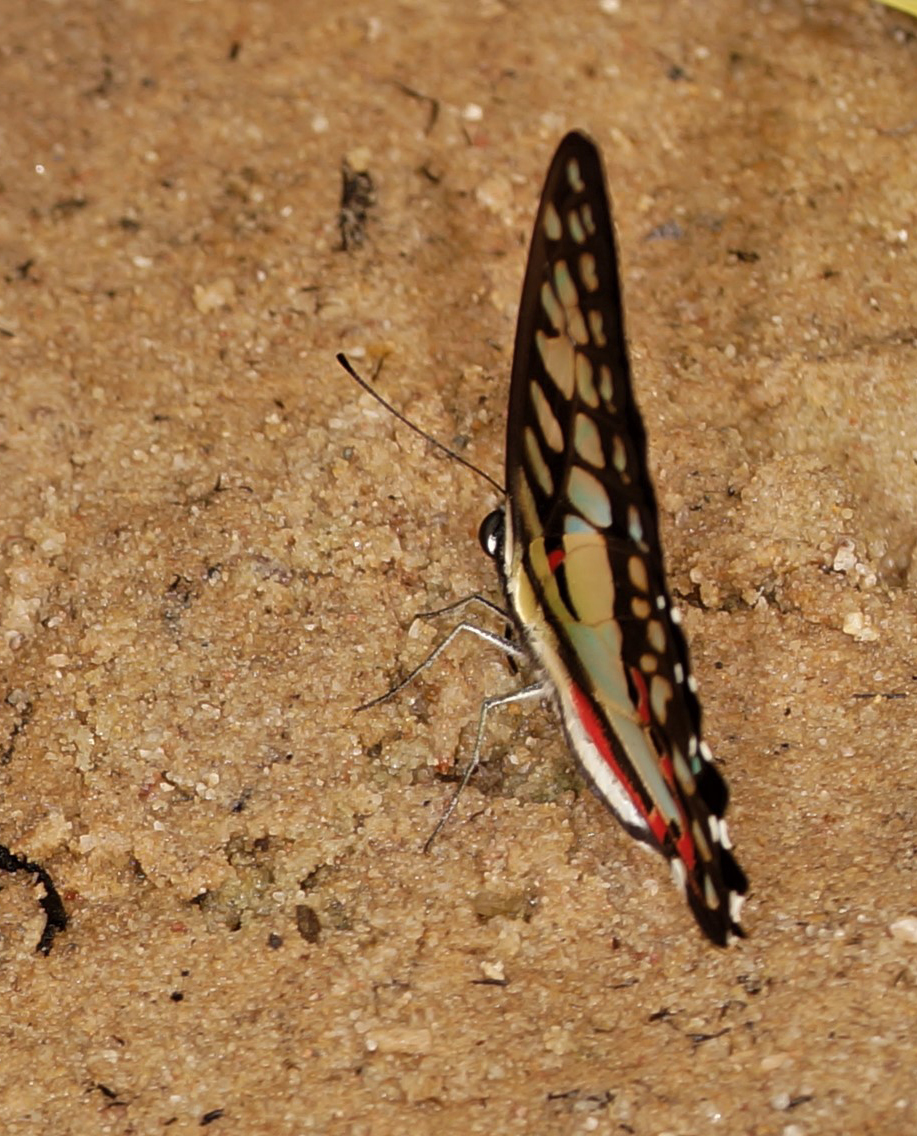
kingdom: Animalia
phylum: Arthropoda
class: Insecta
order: Lepidoptera
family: Papilionidae
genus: Graphium
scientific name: Graphium doson
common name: Common jay
